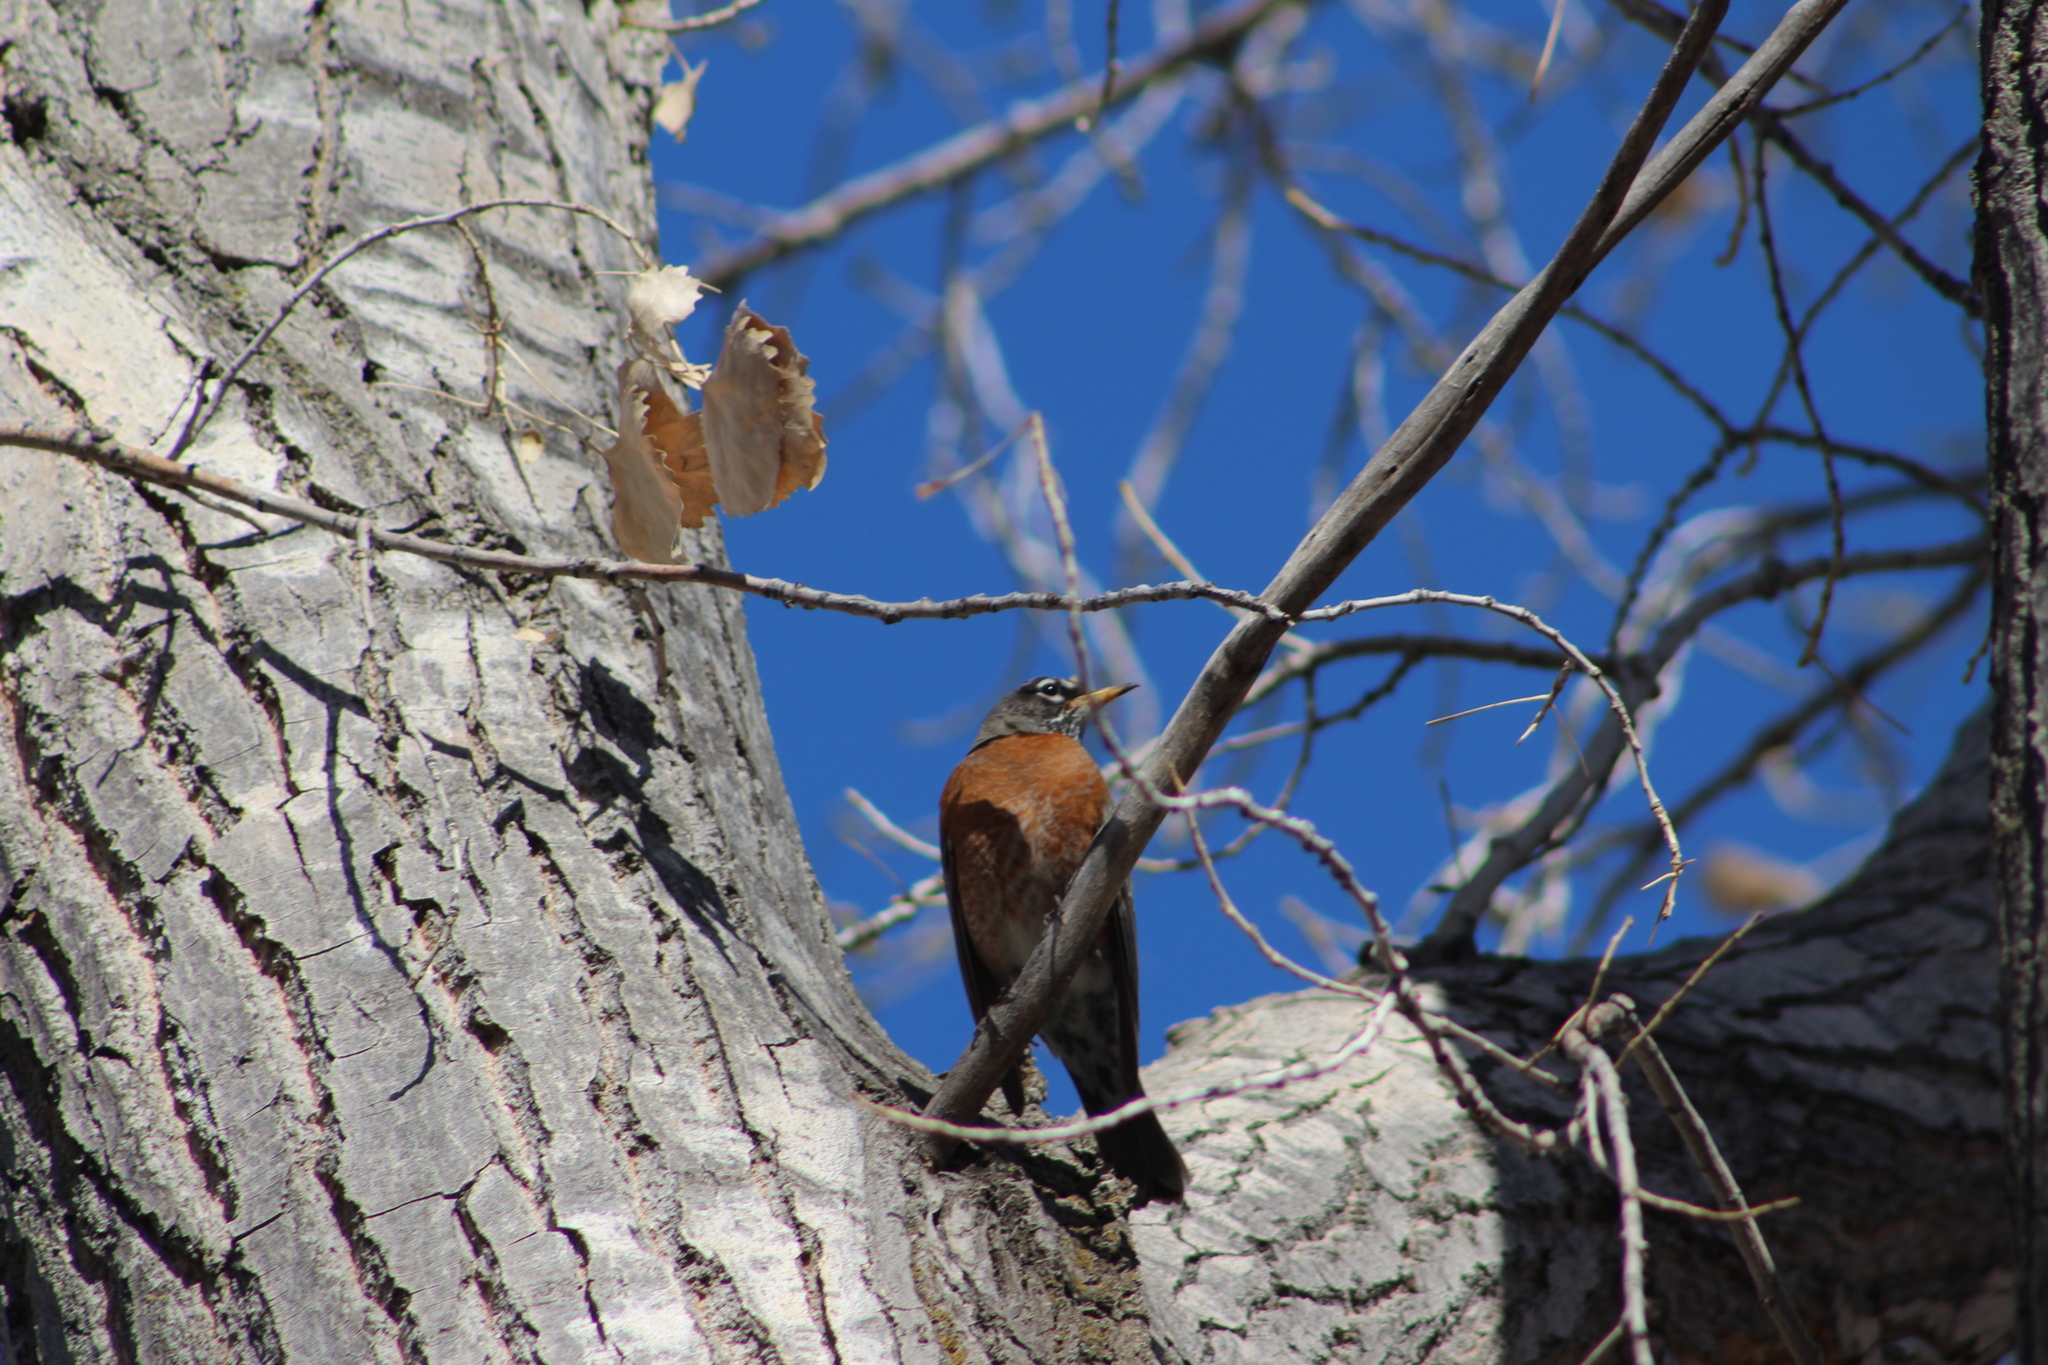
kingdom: Animalia
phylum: Chordata
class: Aves
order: Passeriformes
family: Turdidae
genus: Turdus
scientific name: Turdus migratorius
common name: American robin
